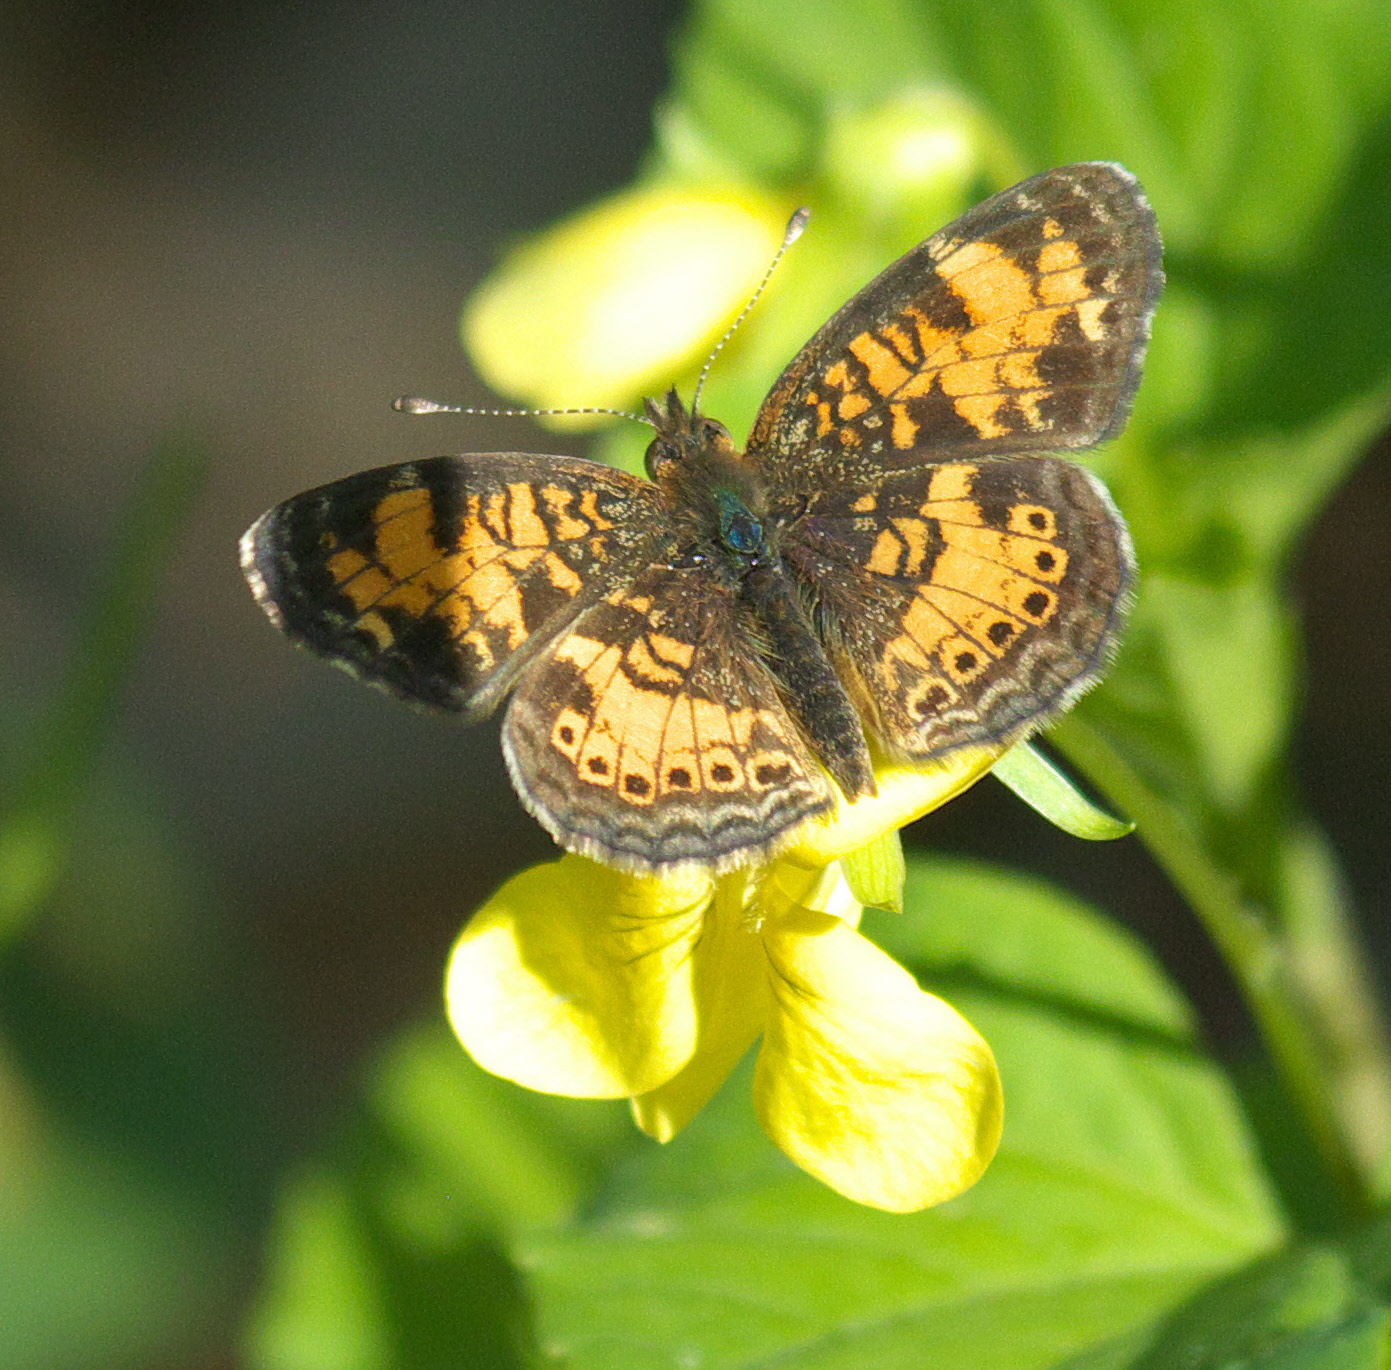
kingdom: Animalia
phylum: Arthropoda
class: Insecta
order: Lepidoptera
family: Nymphalidae
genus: Phyciodes
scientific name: Phyciodes tharos
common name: Pearl crescent
